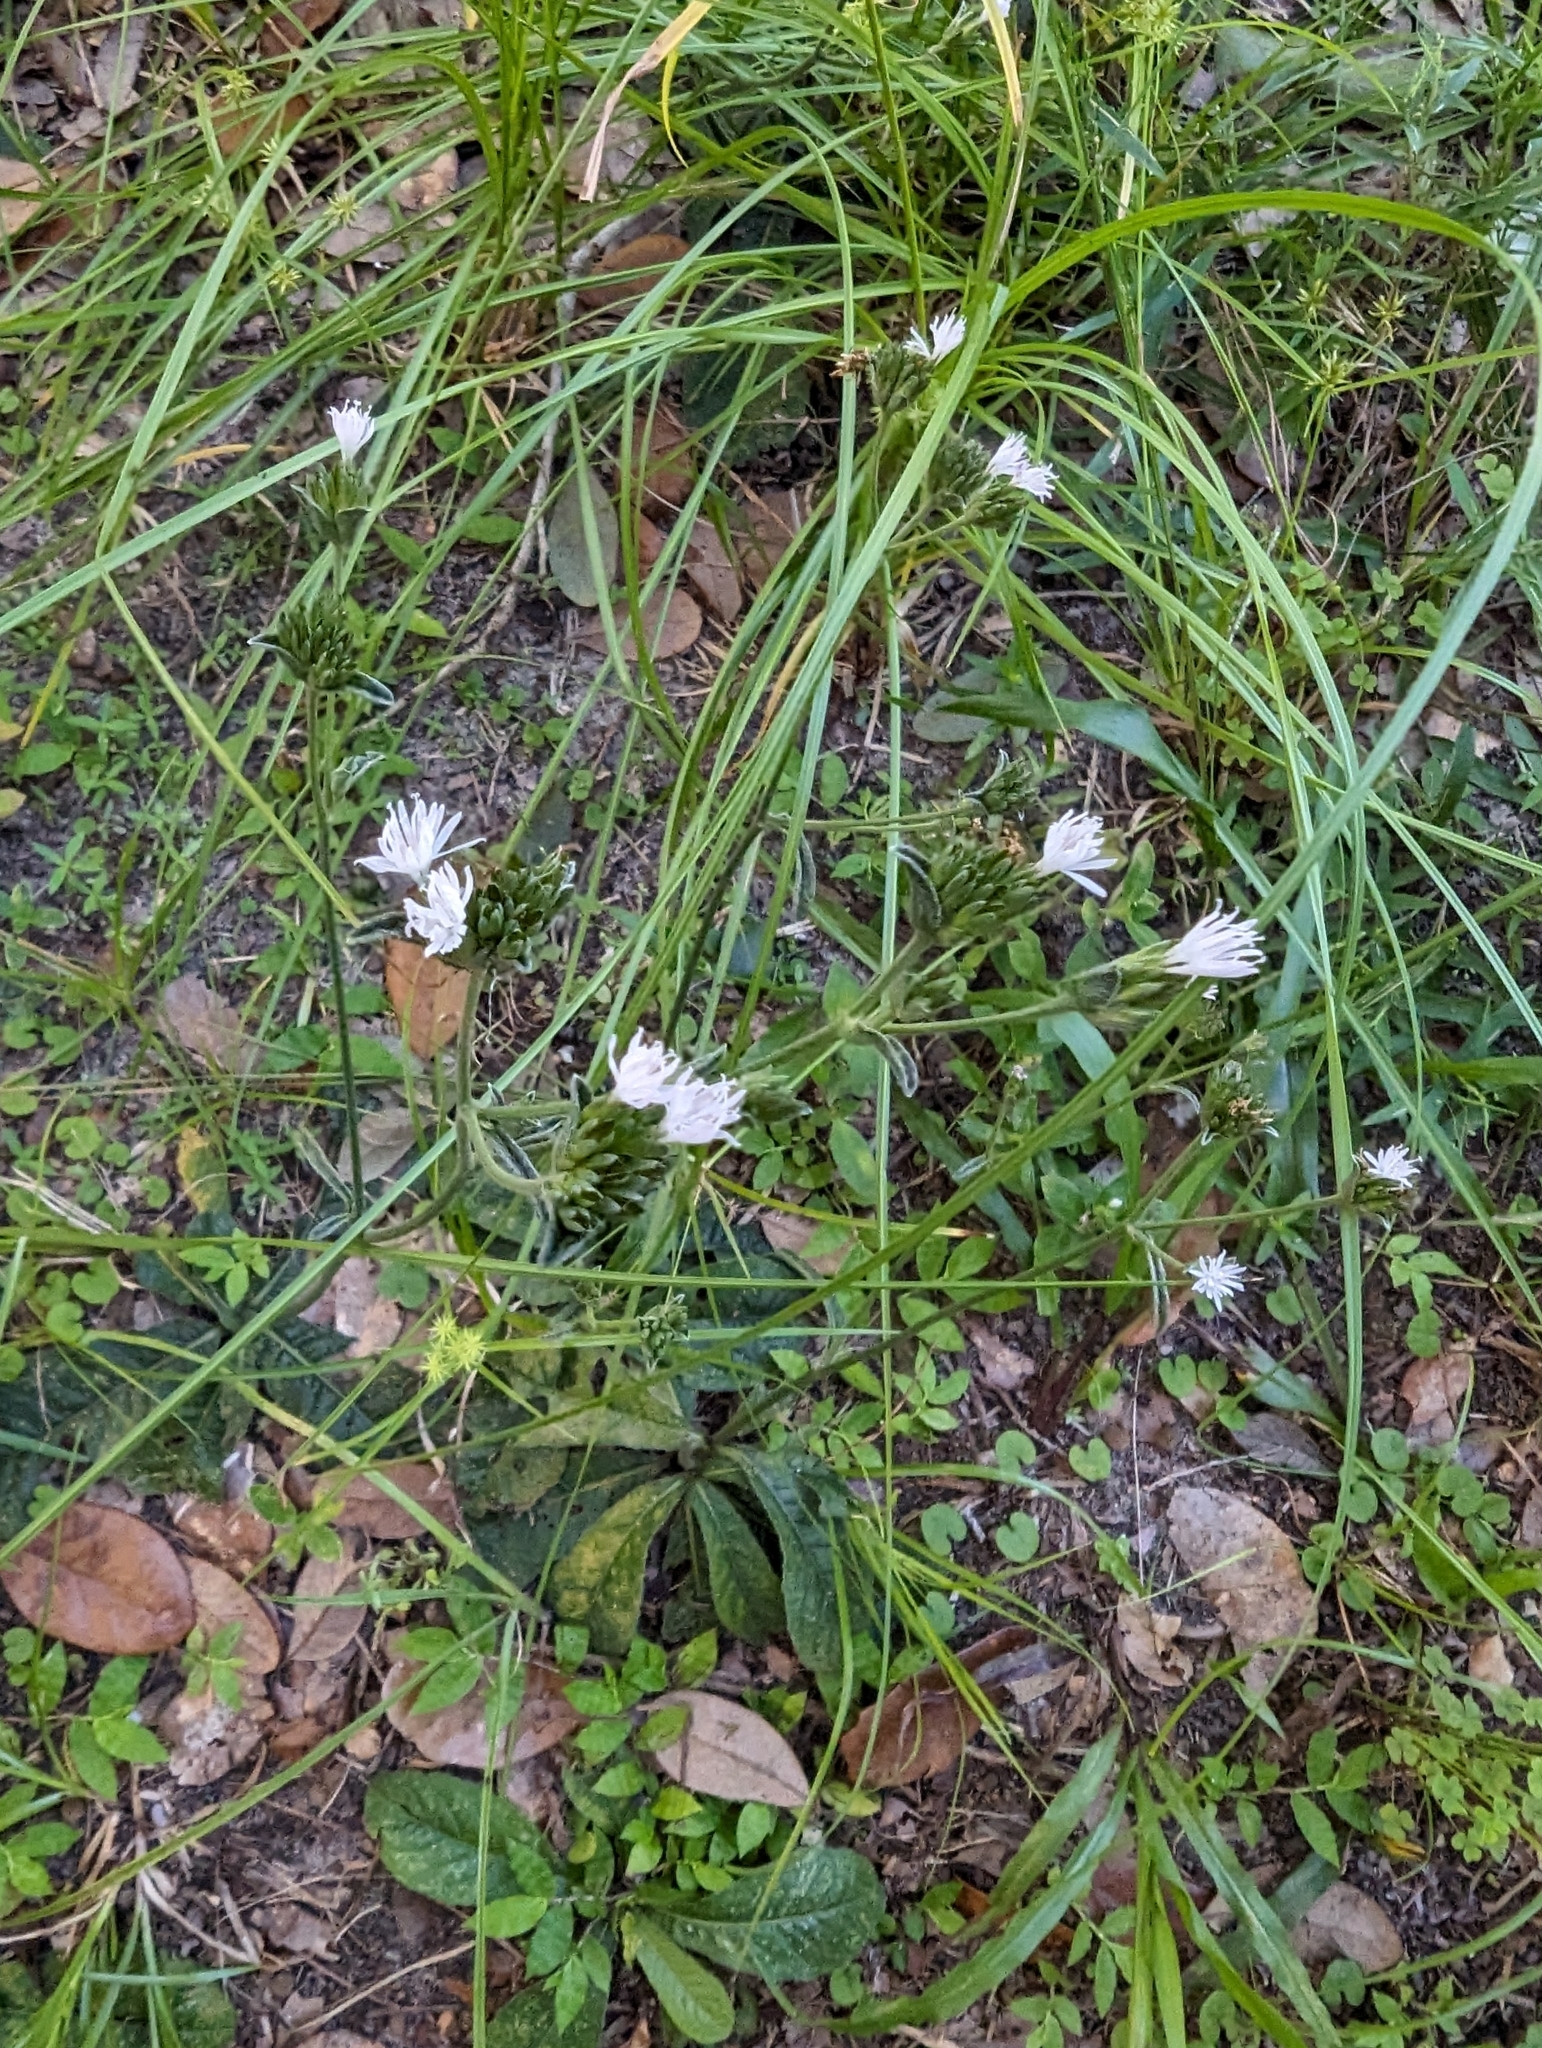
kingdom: Plantae
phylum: Tracheophyta
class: Magnoliopsida
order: Asterales
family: Asteraceae
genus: Elephantopus
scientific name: Elephantopus elatus
